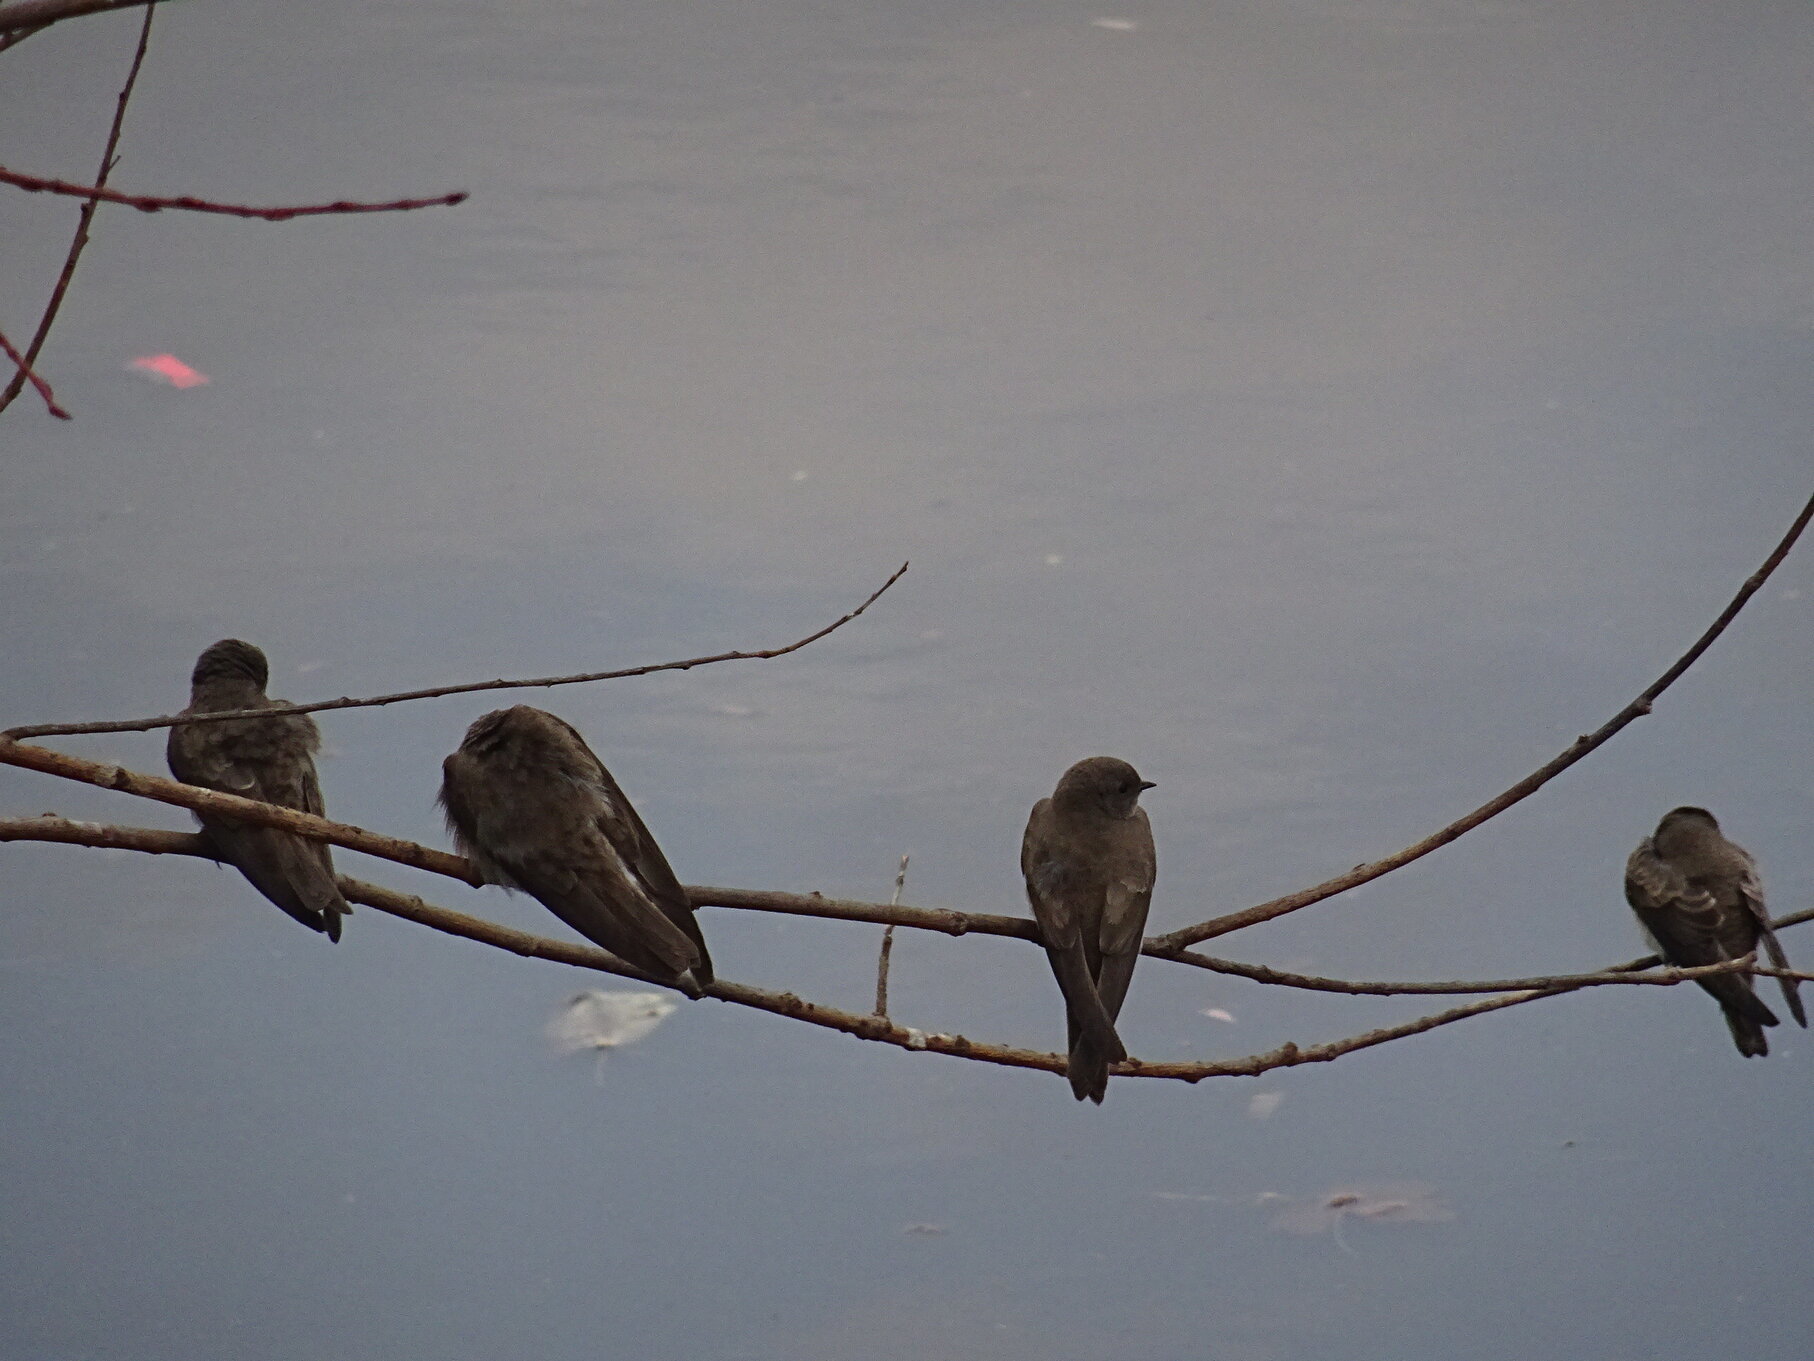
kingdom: Animalia
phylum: Chordata
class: Aves
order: Passeriformes
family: Hirundinidae
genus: Riparia
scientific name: Riparia paludicola
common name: Brown-throated martin
